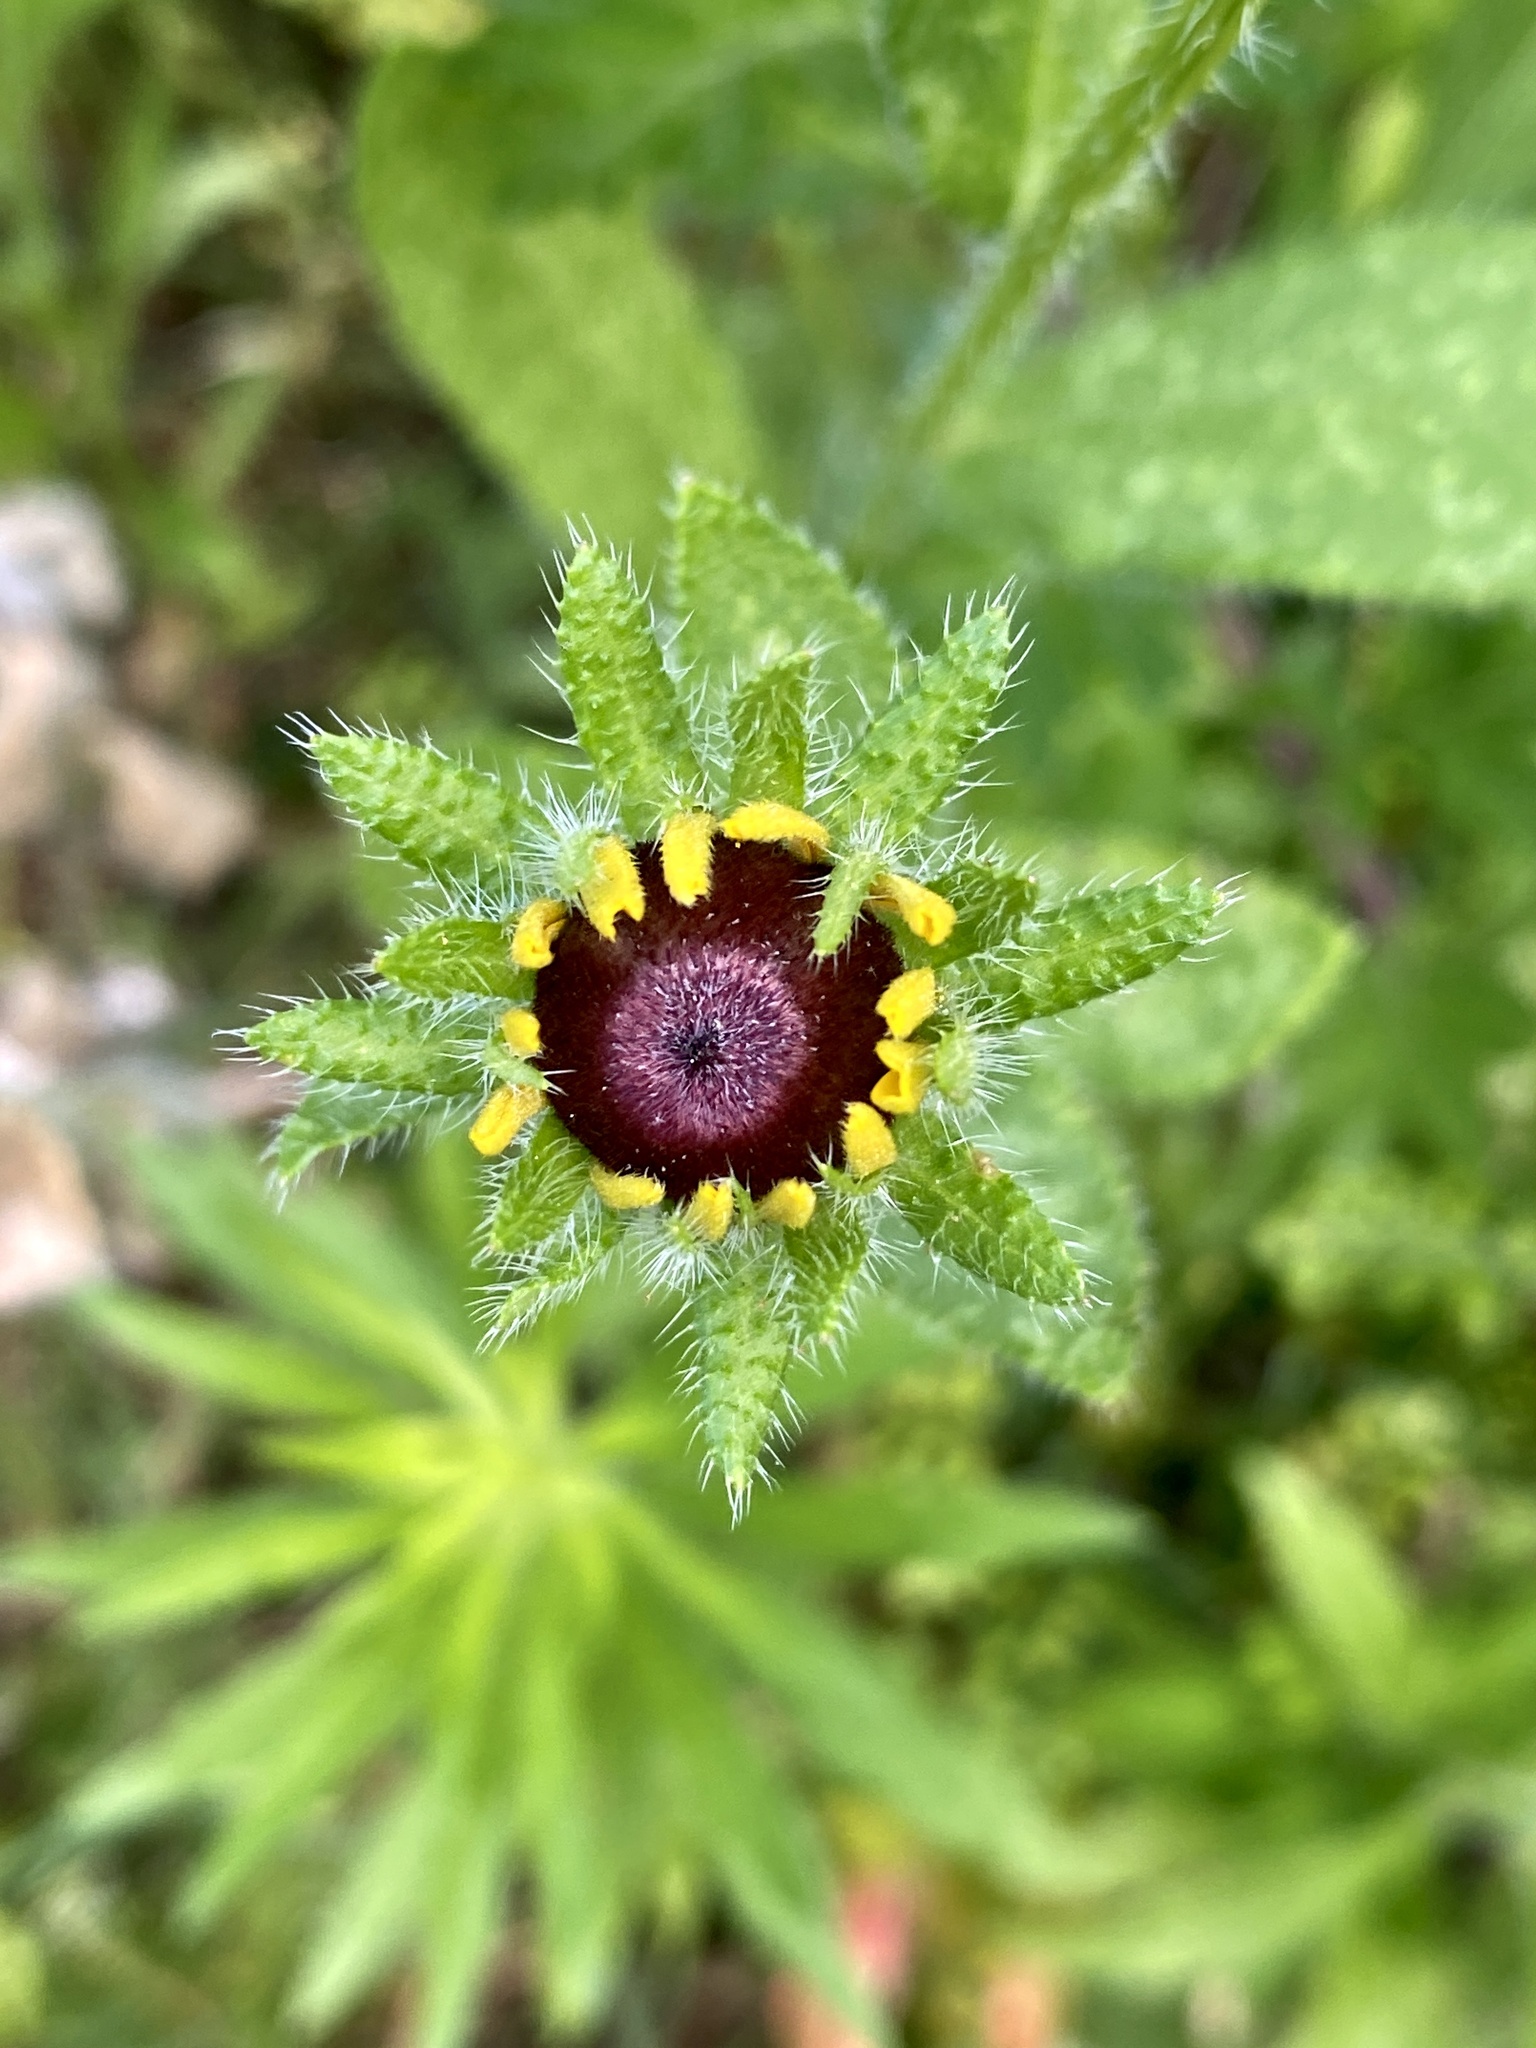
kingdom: Plantae
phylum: Tracheophyta
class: Magnoliopsida
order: Asterales
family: Asteraceae
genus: Rudbeckia
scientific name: Rudbeckia hirta
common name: Black-eyed-susan
